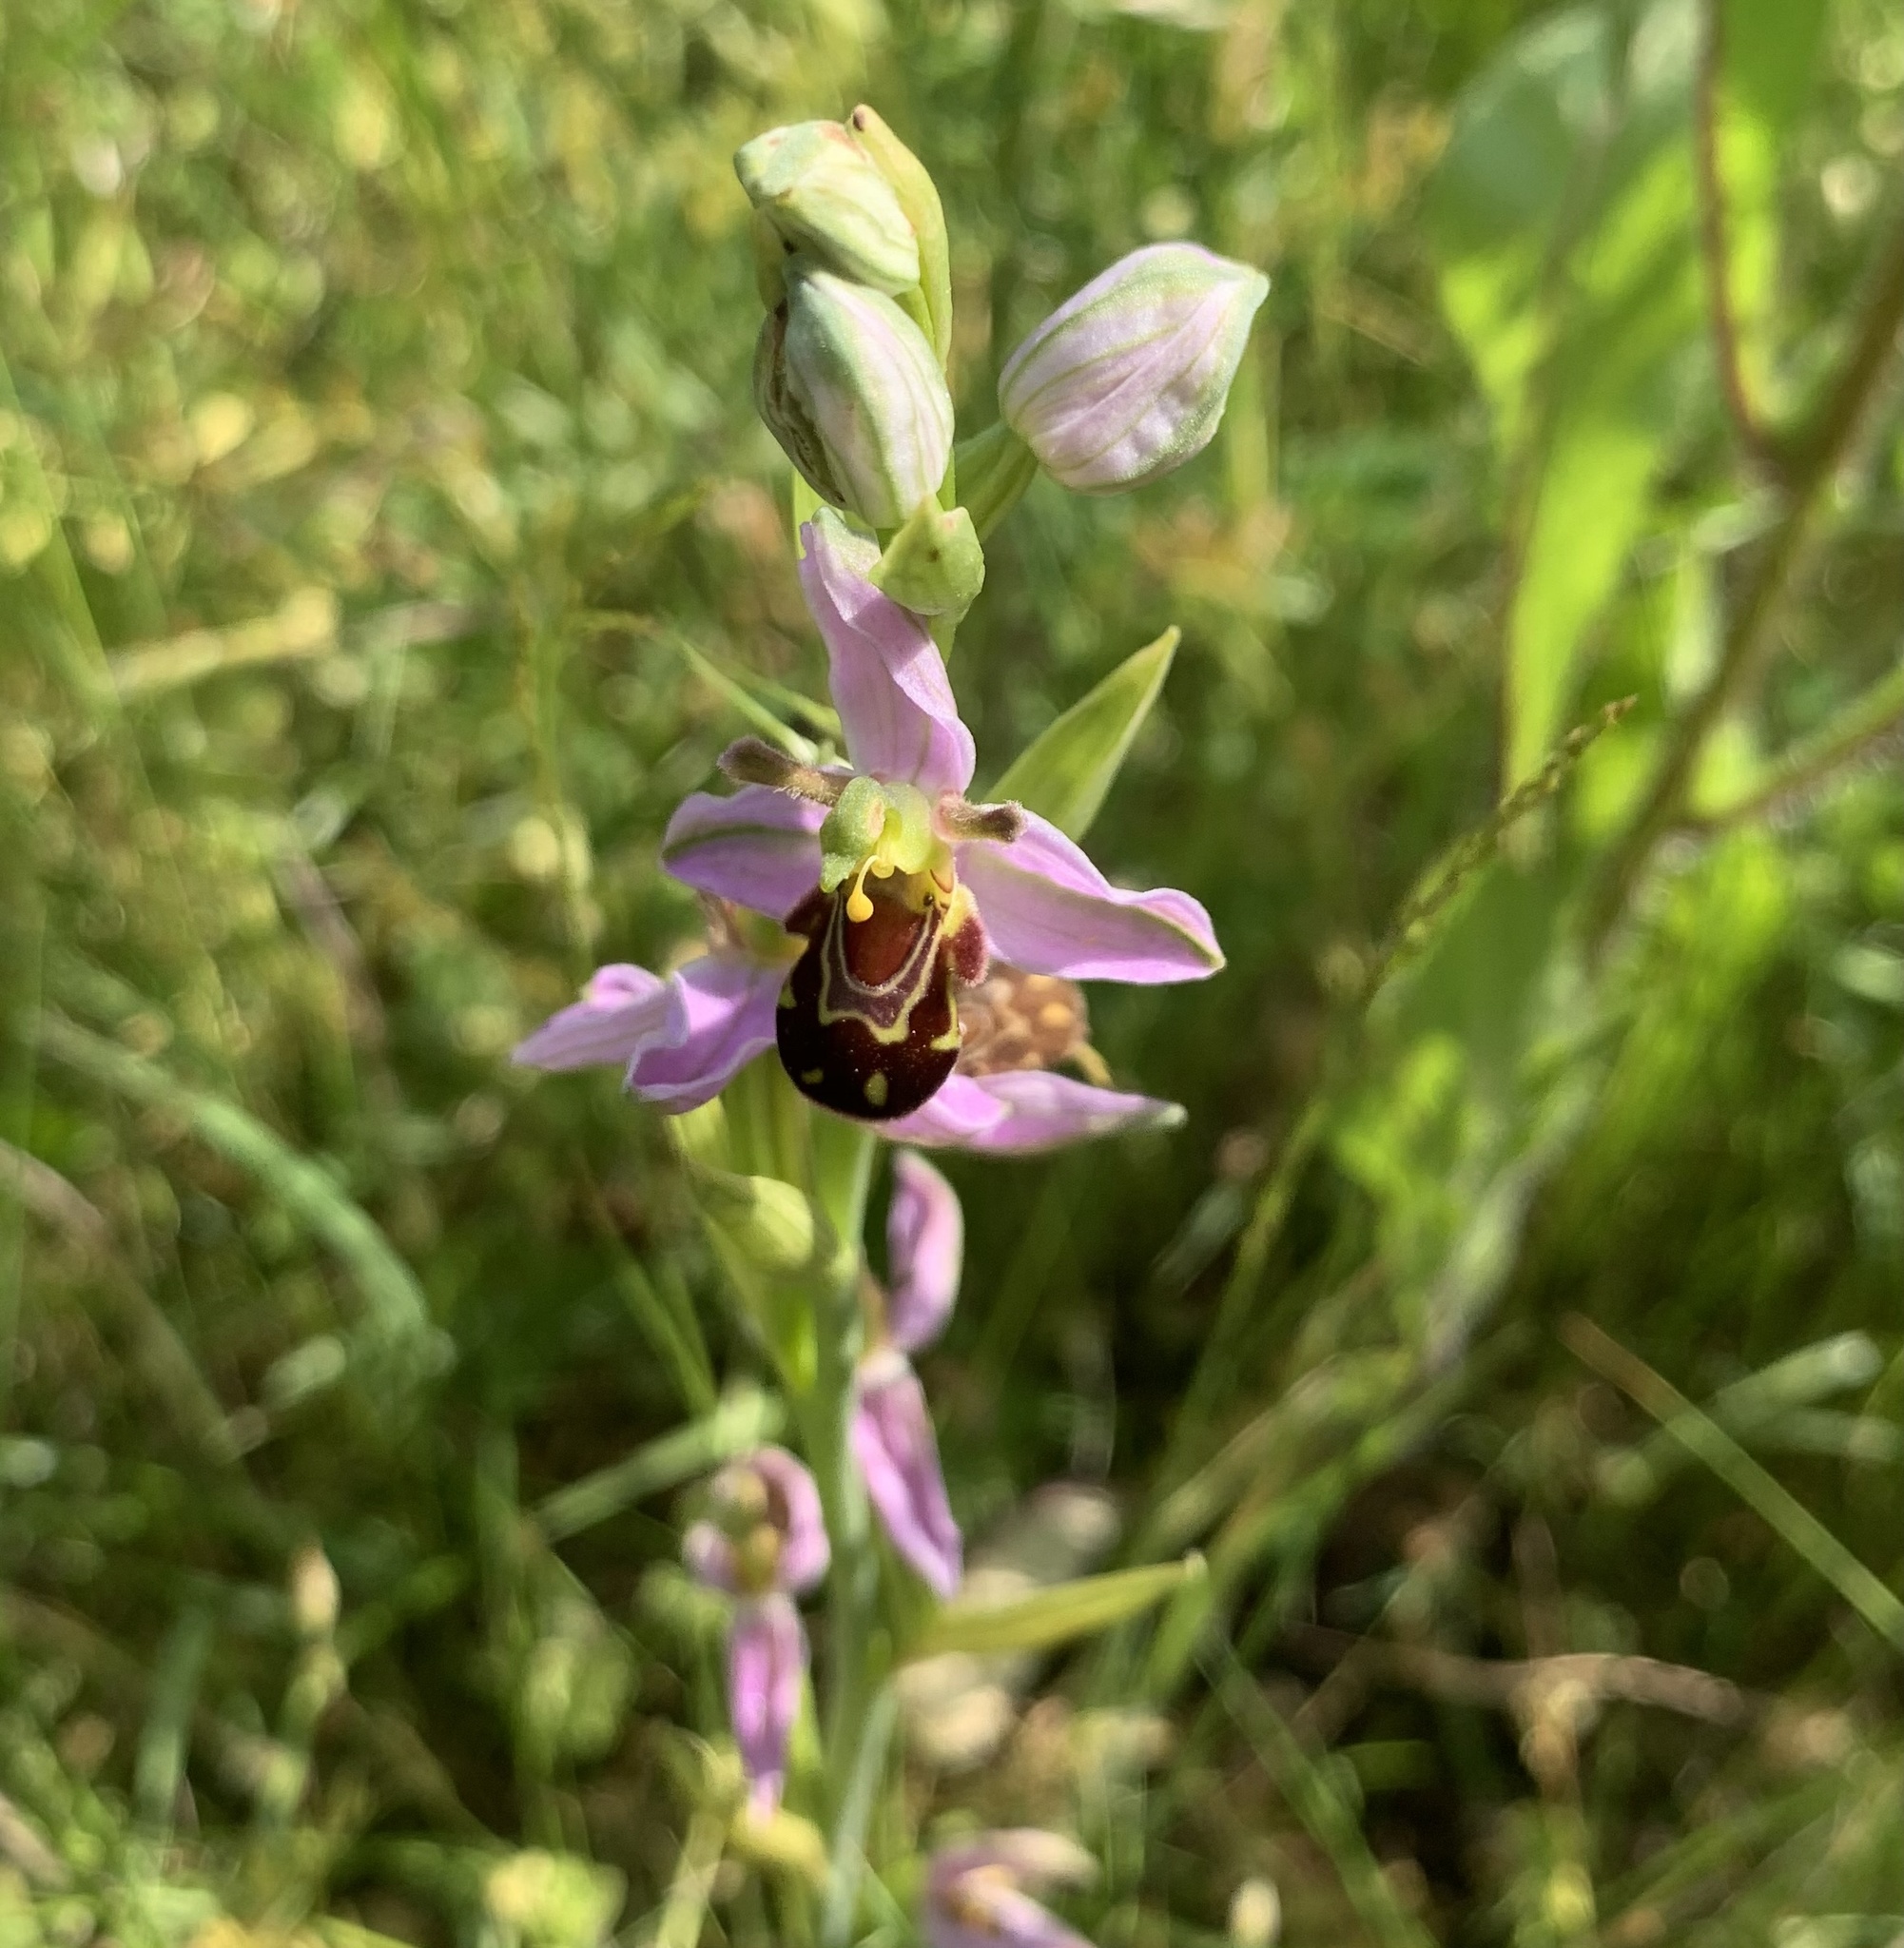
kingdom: Plantae
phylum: Tracheophyta
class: Liliopsida
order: Asparagales
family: Orchidaceae
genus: Ophrys
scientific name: Ophrys apifera
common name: Bee orchid
